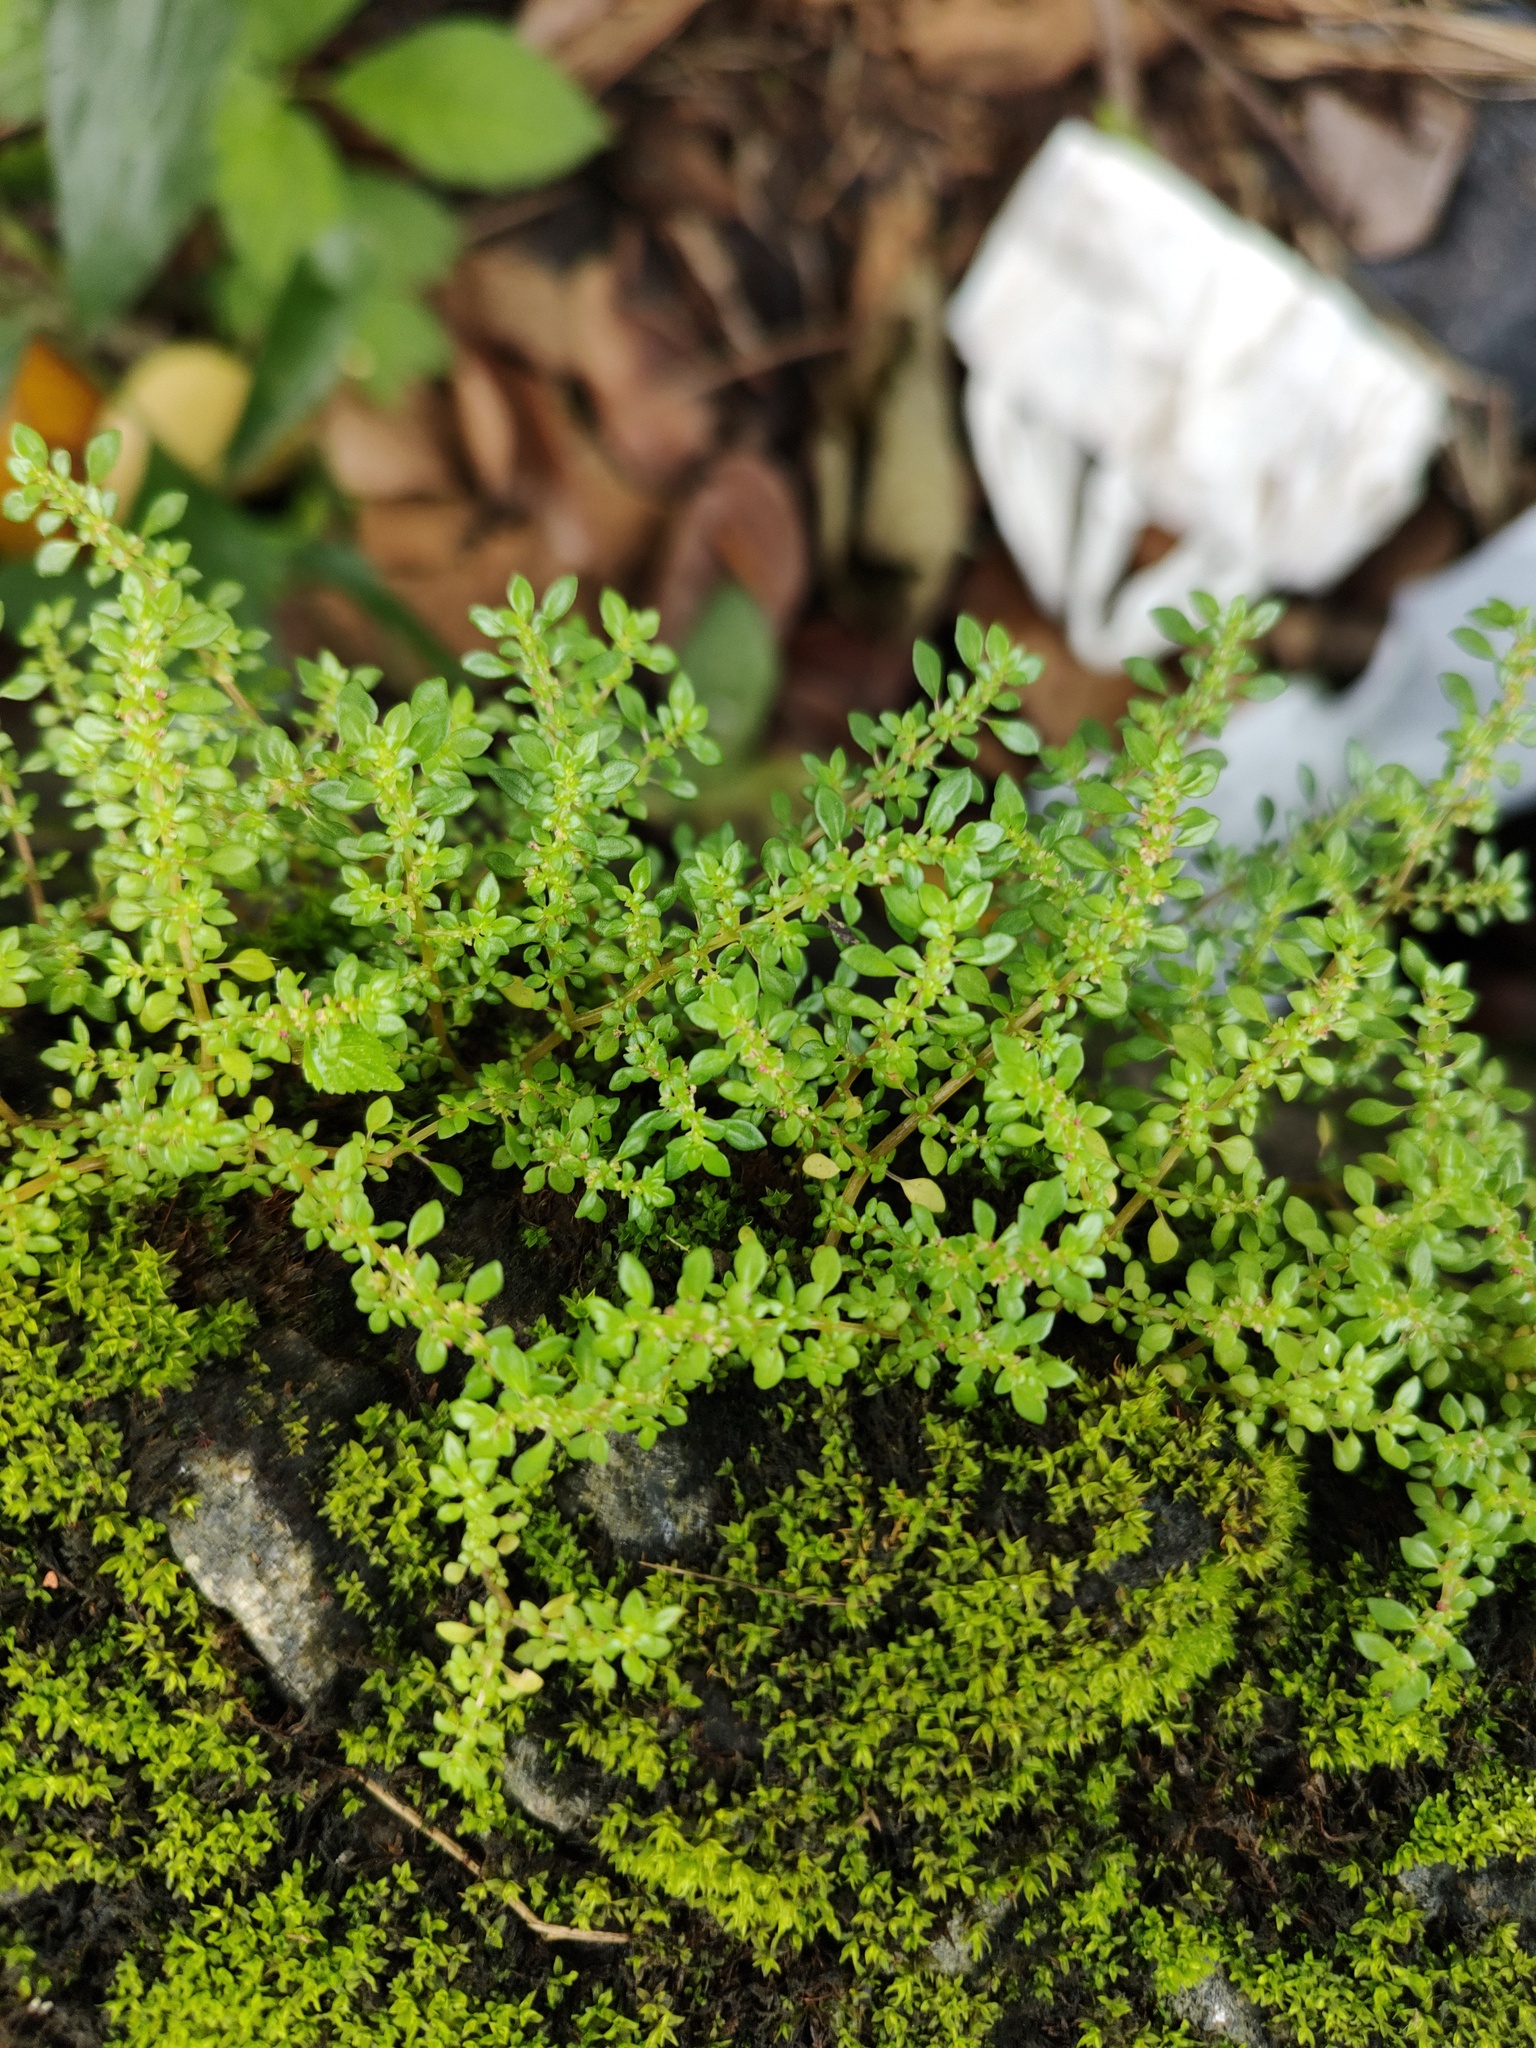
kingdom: Plantae
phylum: Tracheophyta
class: Magnoliopsida
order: Rosales
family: Urticaceae
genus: Pilea
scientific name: Pilea microphylla
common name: Artillery-plant
